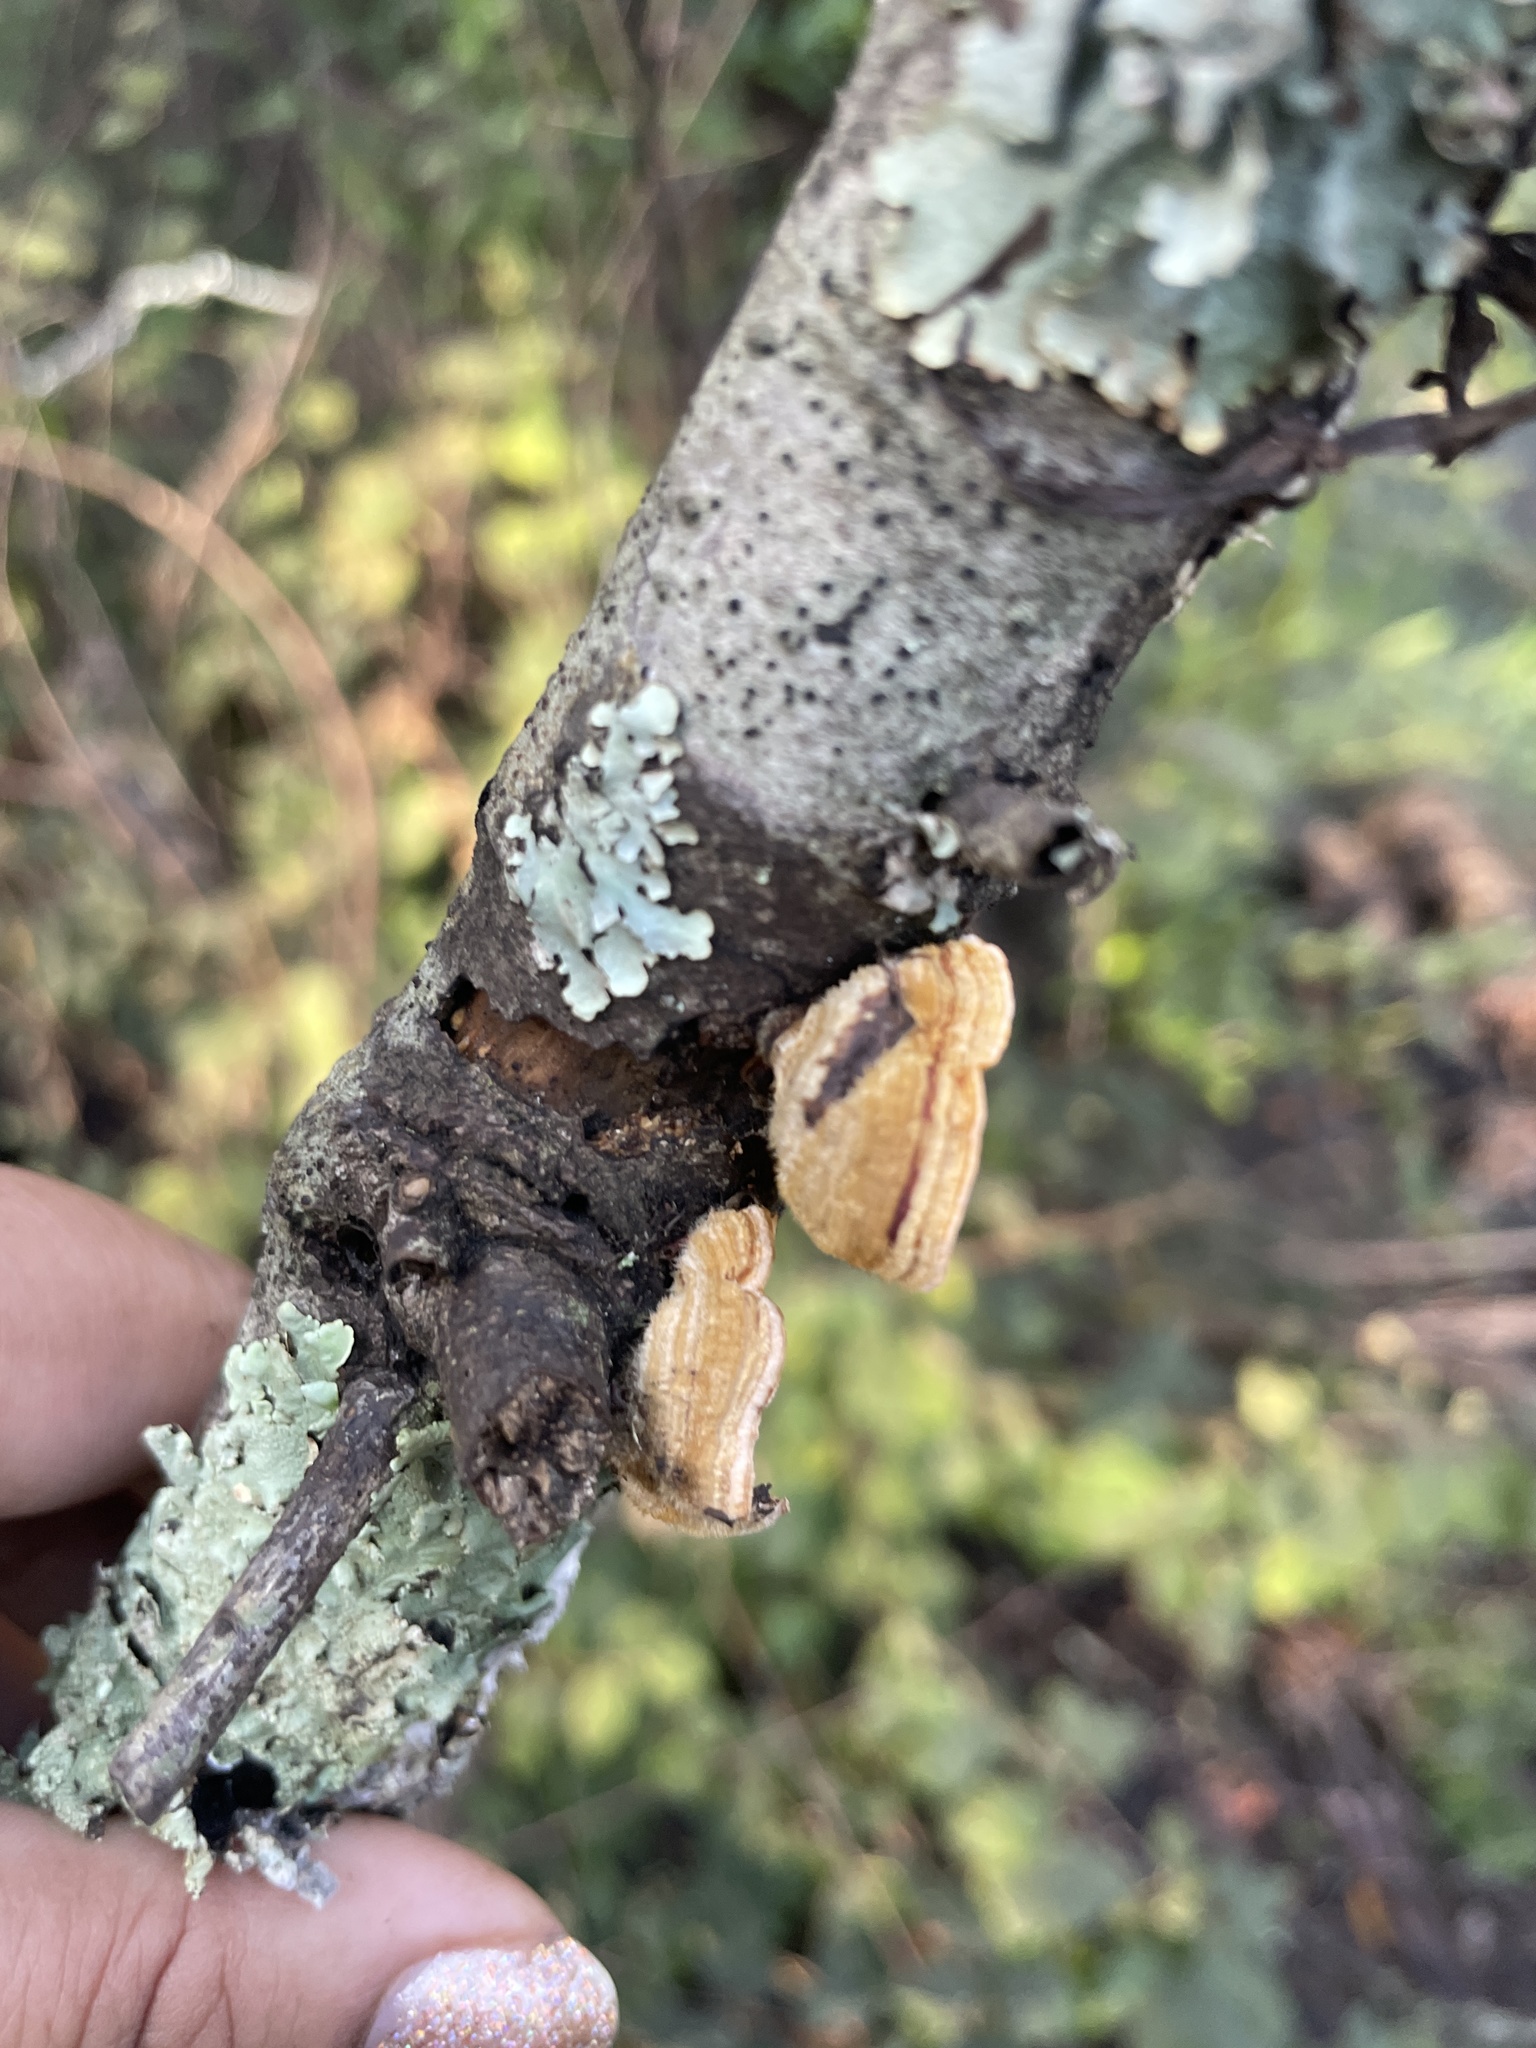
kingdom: Fungi
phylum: Basidiomycota
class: Agaricomycetes
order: Russulales
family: Stereaceae
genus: Stereum
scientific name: Stereum hirsutum
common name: Hairy curtain crust
